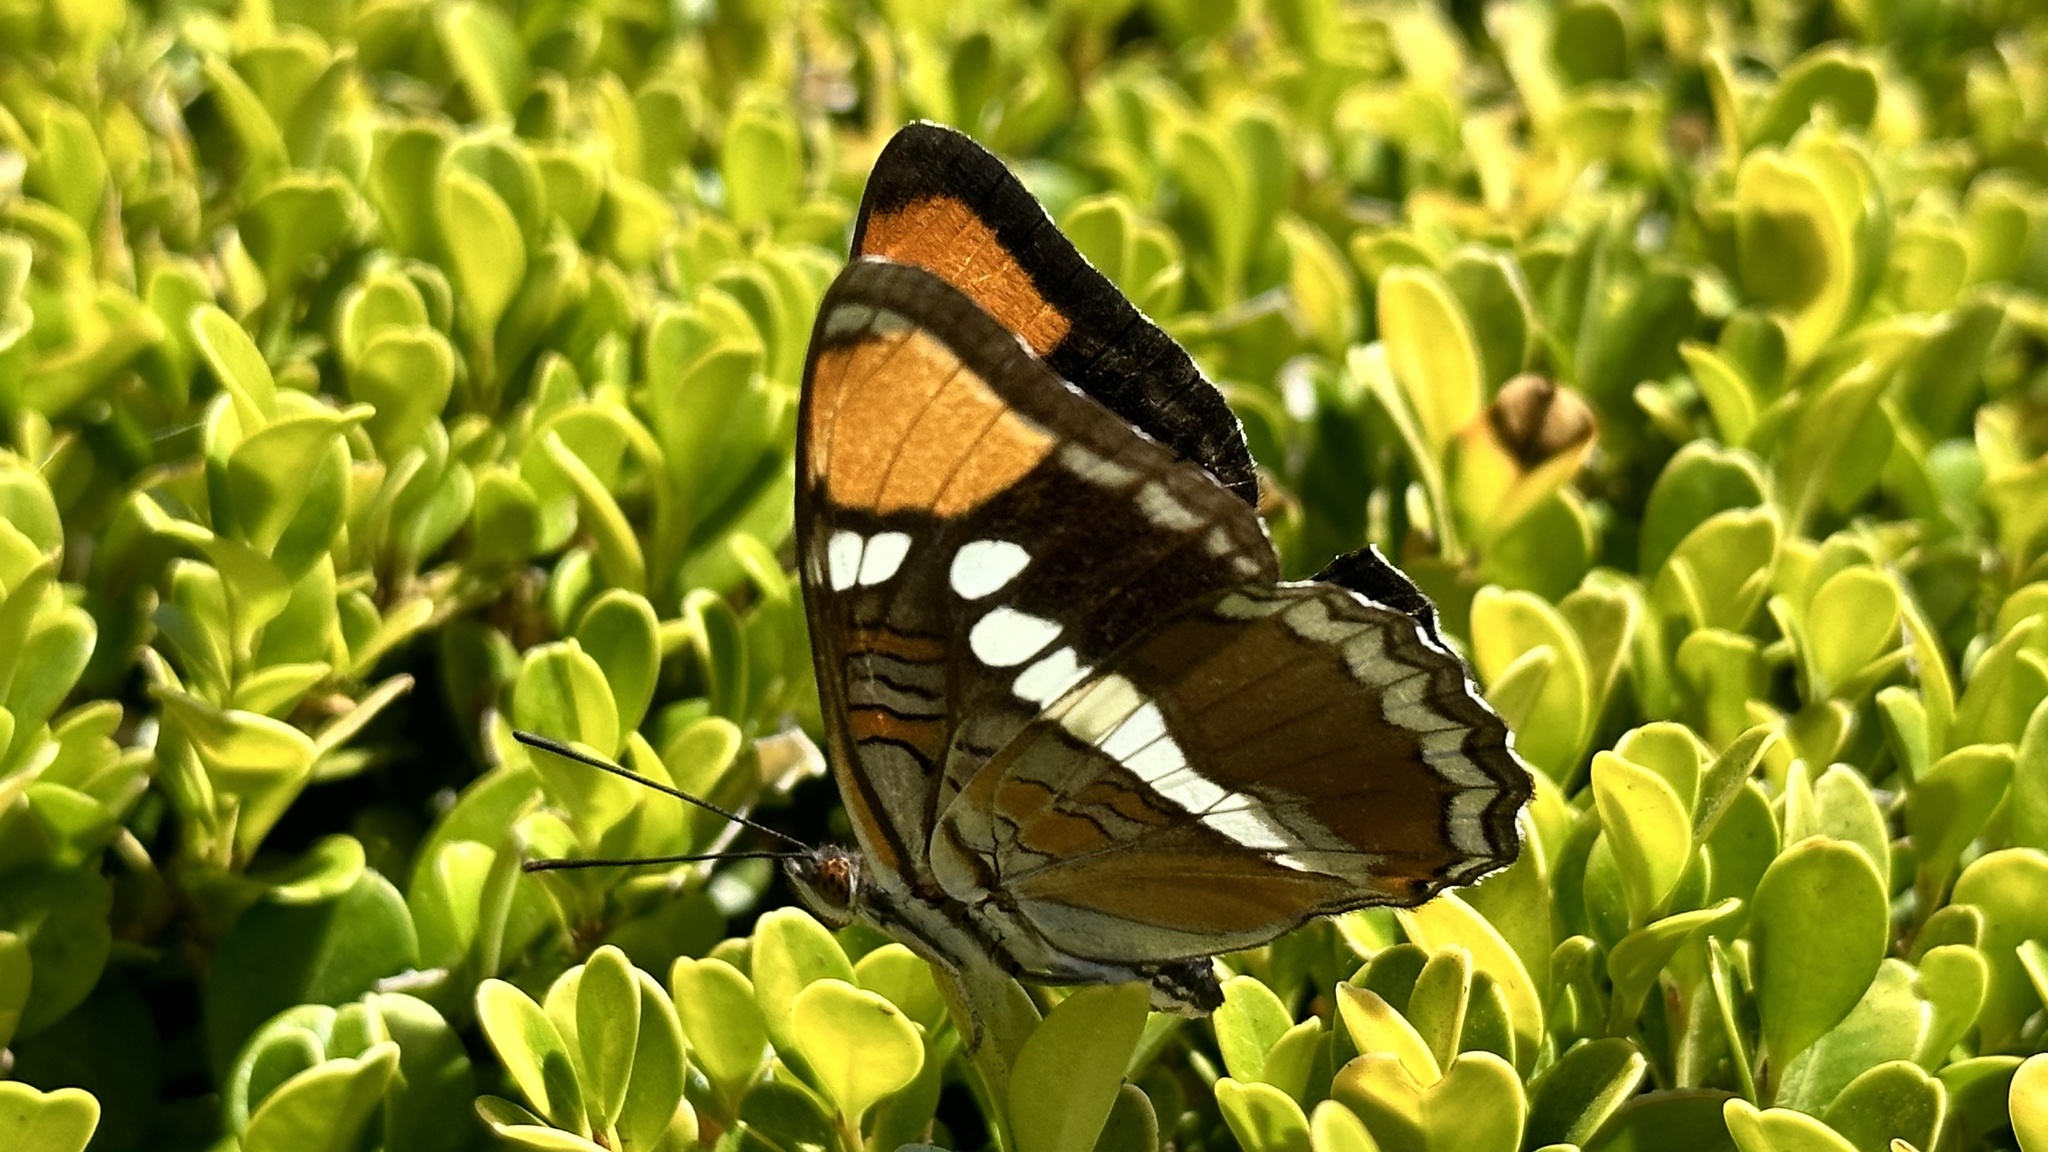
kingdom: Animalia
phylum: Arthropoda
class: Insecta
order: Lepidoptera
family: Nymphalidae
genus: Limenitis
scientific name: Limenitis bredowii
